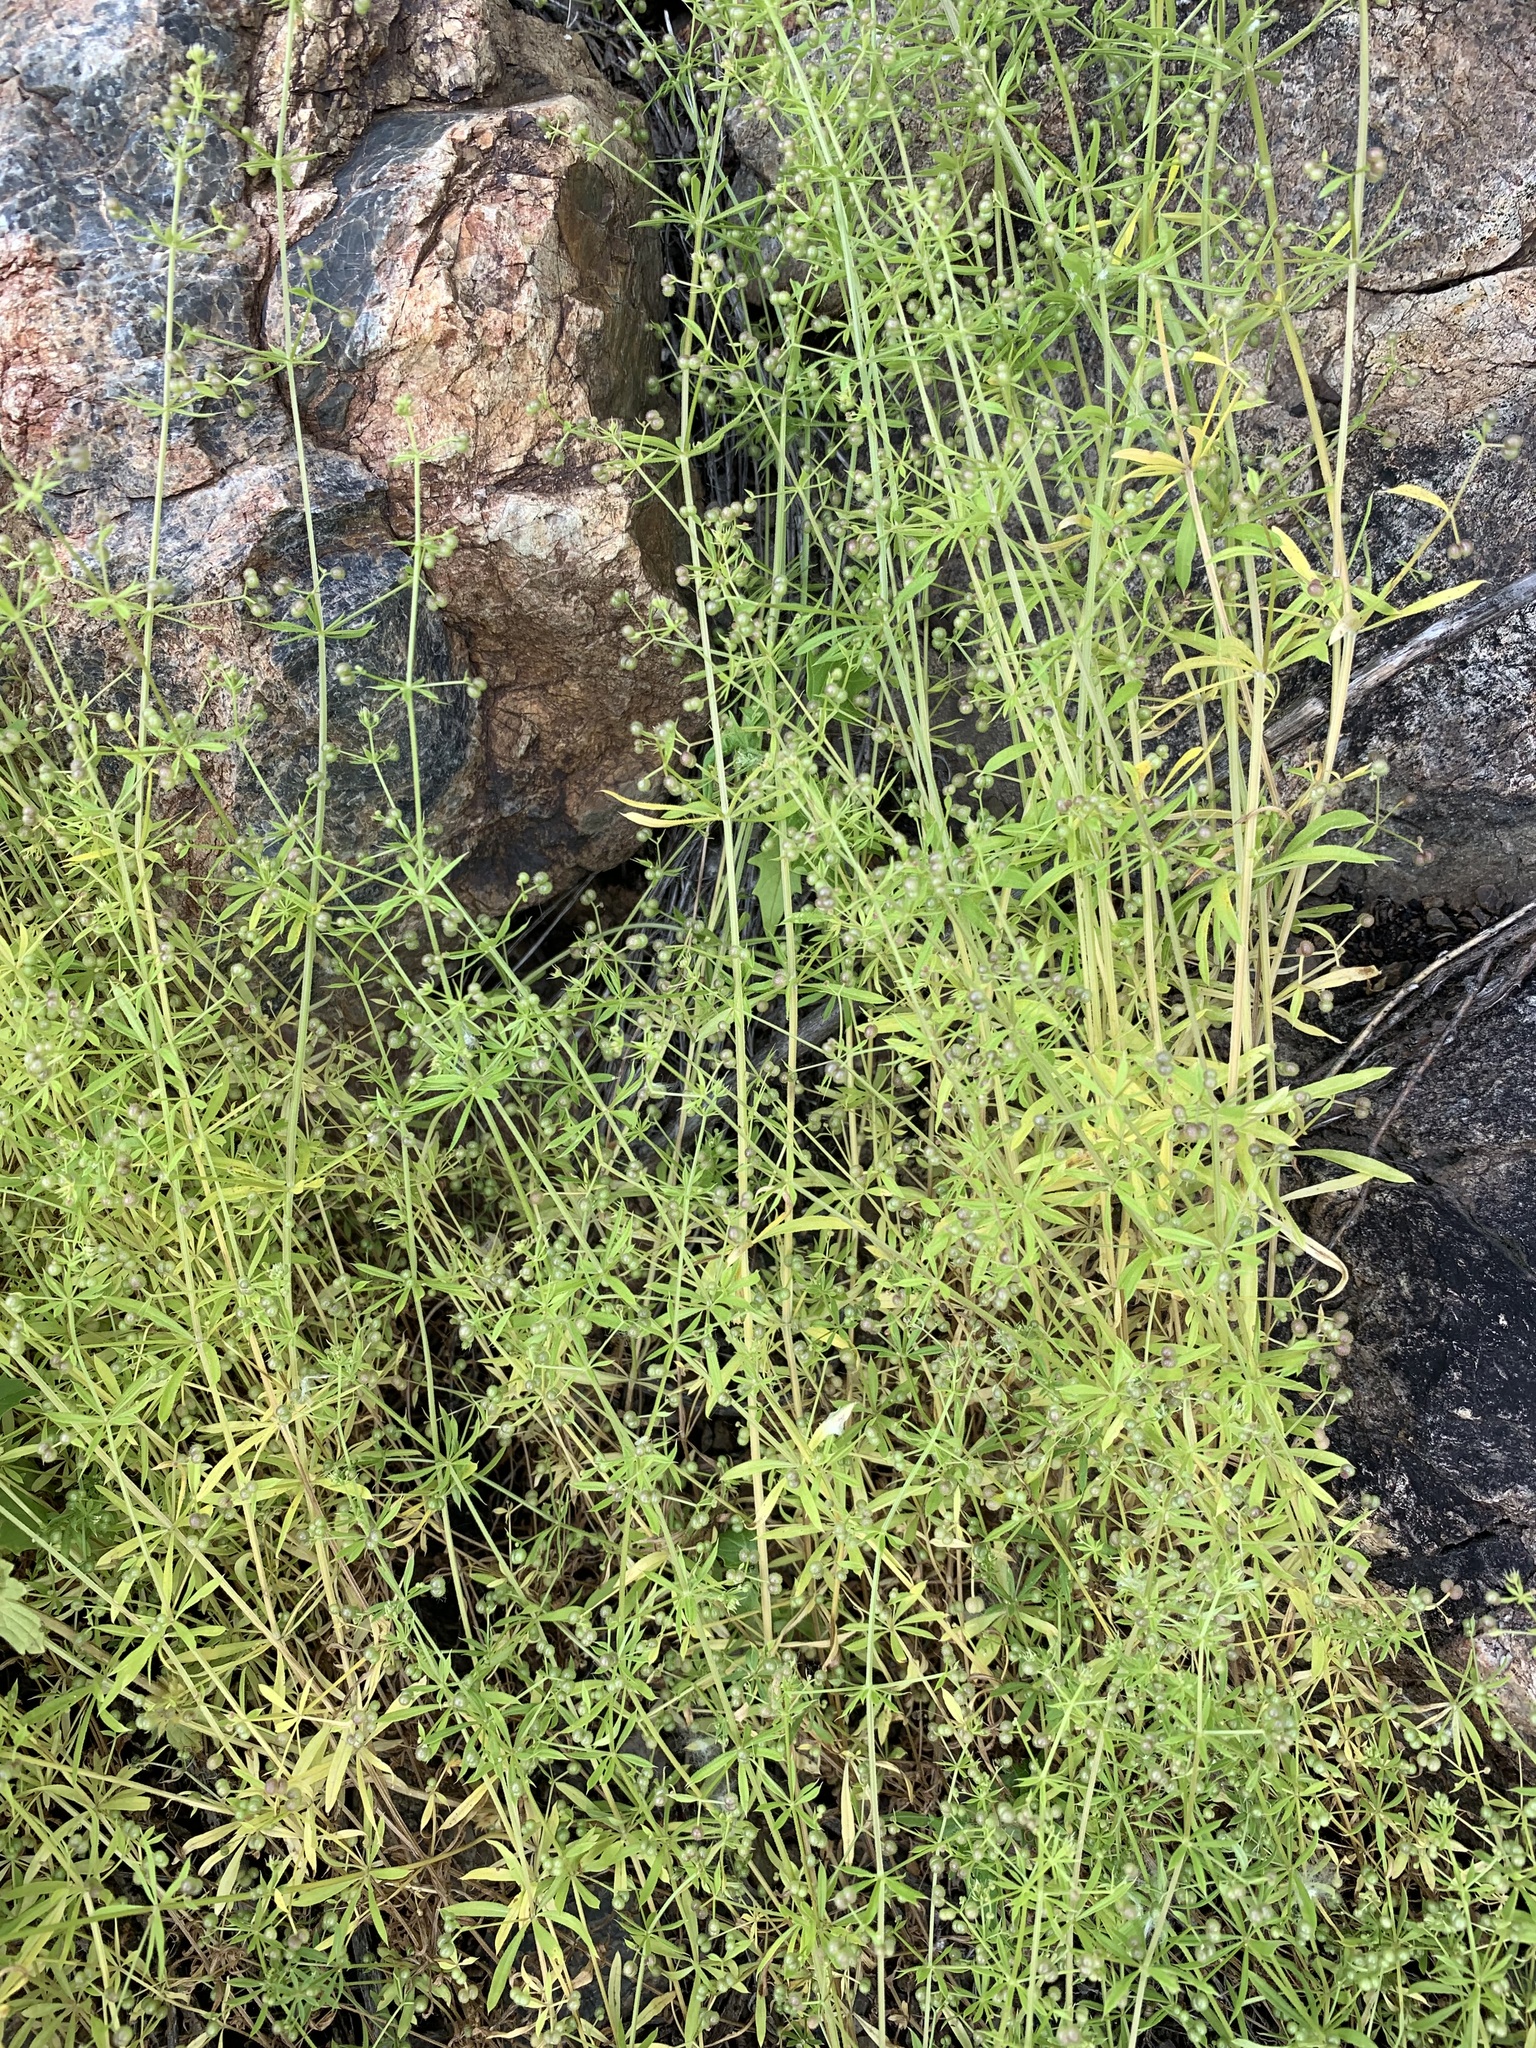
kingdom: Plantae
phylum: Tracheophyta
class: Magnoliopsida
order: Gentianales
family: Rubiaceae
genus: Galium
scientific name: Galium aparine
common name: Cleavers
